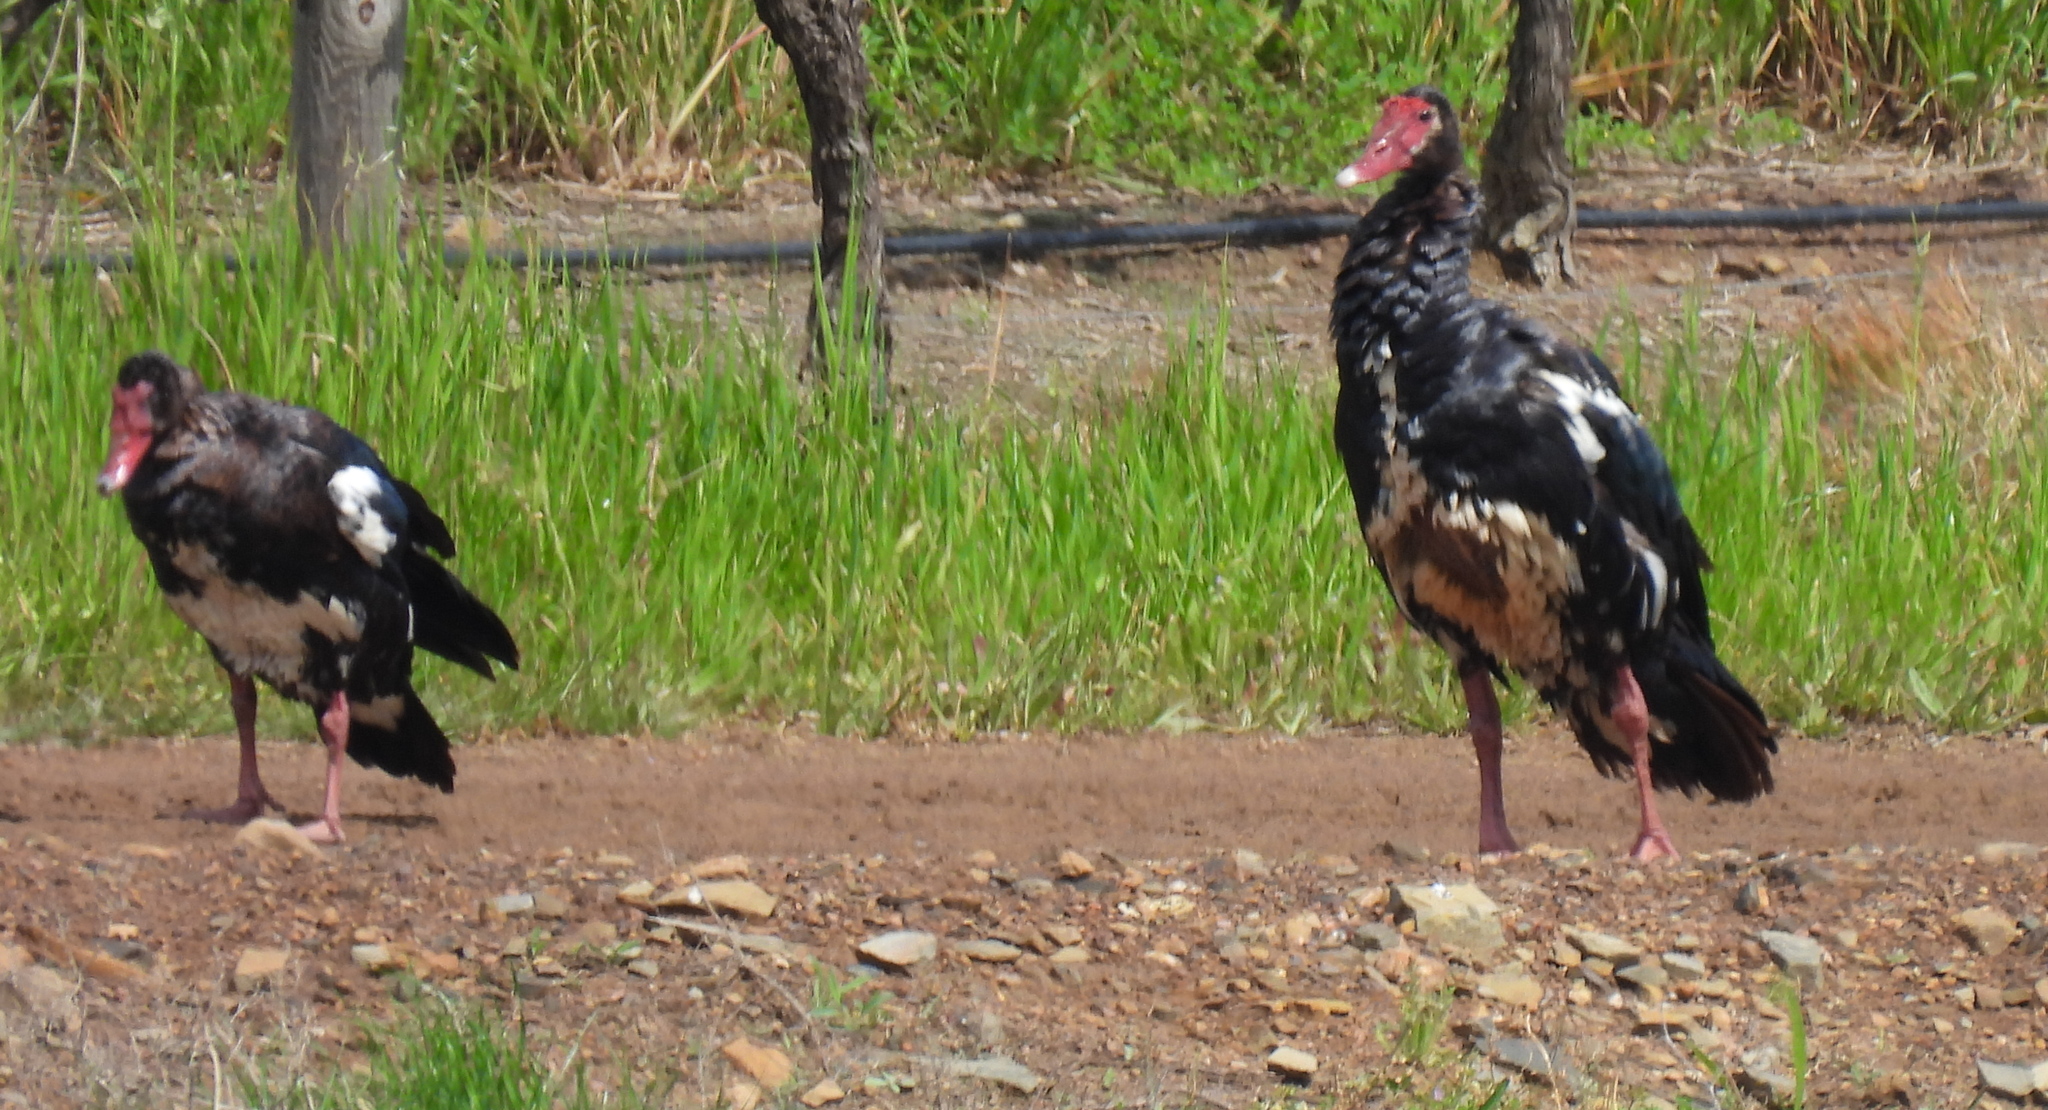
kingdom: Animalia
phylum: Chordata
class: Aves
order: Anseriformes
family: Anatidae
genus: Plectropterus
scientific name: Plectropterus gambensis
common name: Spur-winged goose
